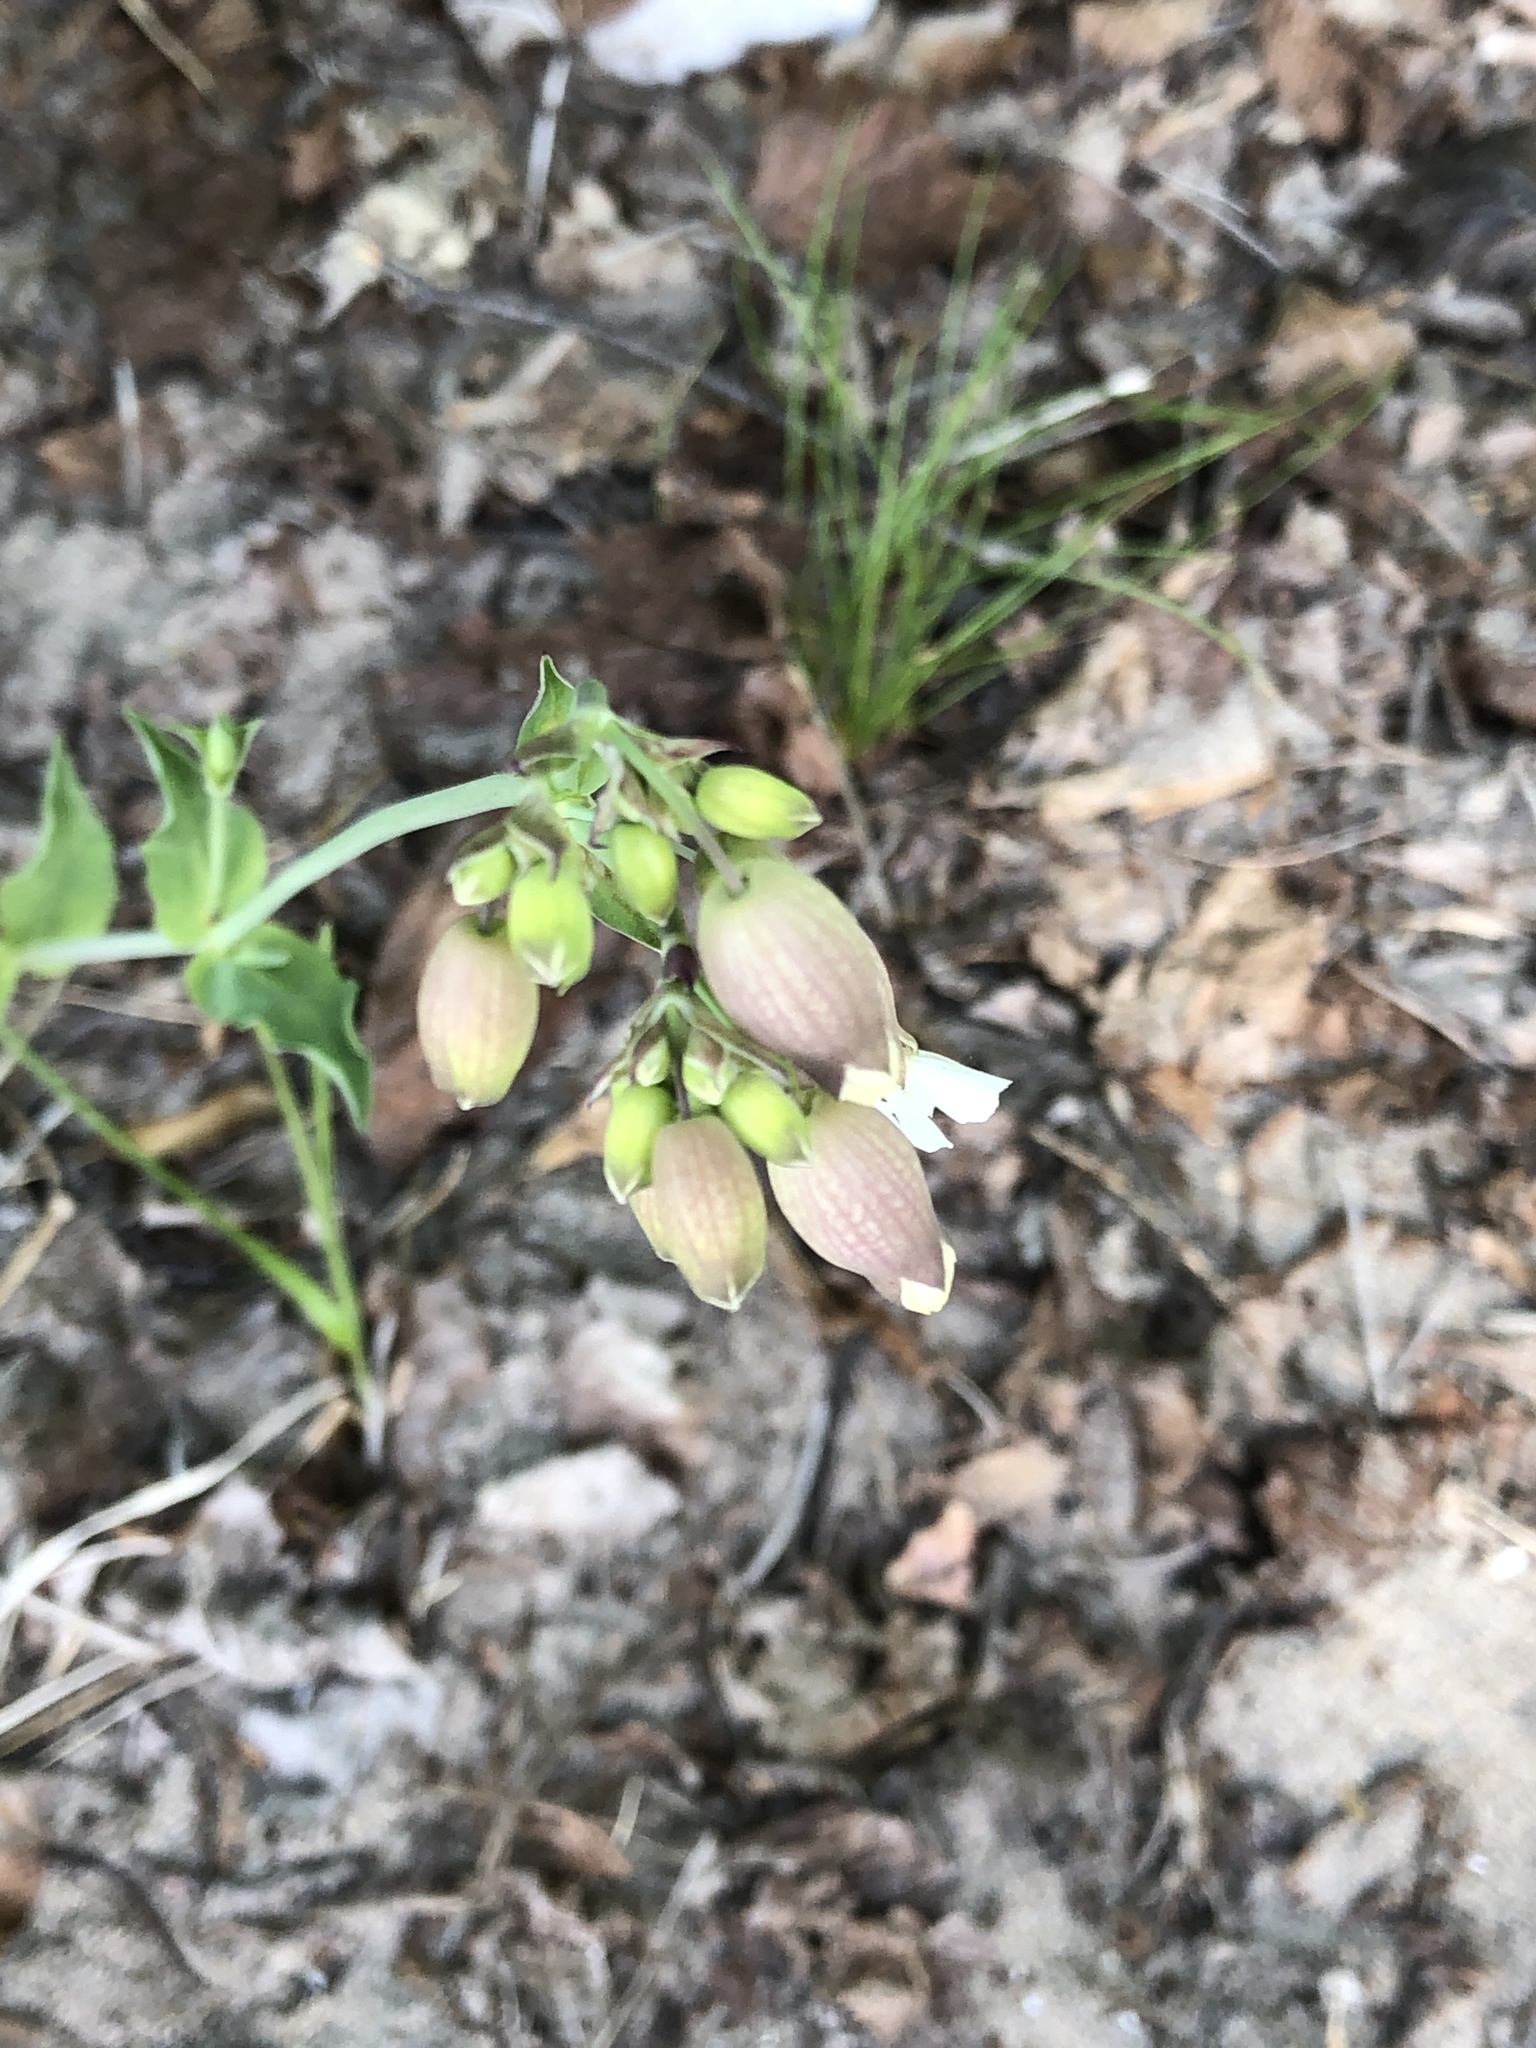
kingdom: Plantae
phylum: Tracheophyta
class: Magnoliopsida
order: Caryophyllales
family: Caryophyllaceae
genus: Silene
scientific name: Silene vulgaris
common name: Bladder campion
